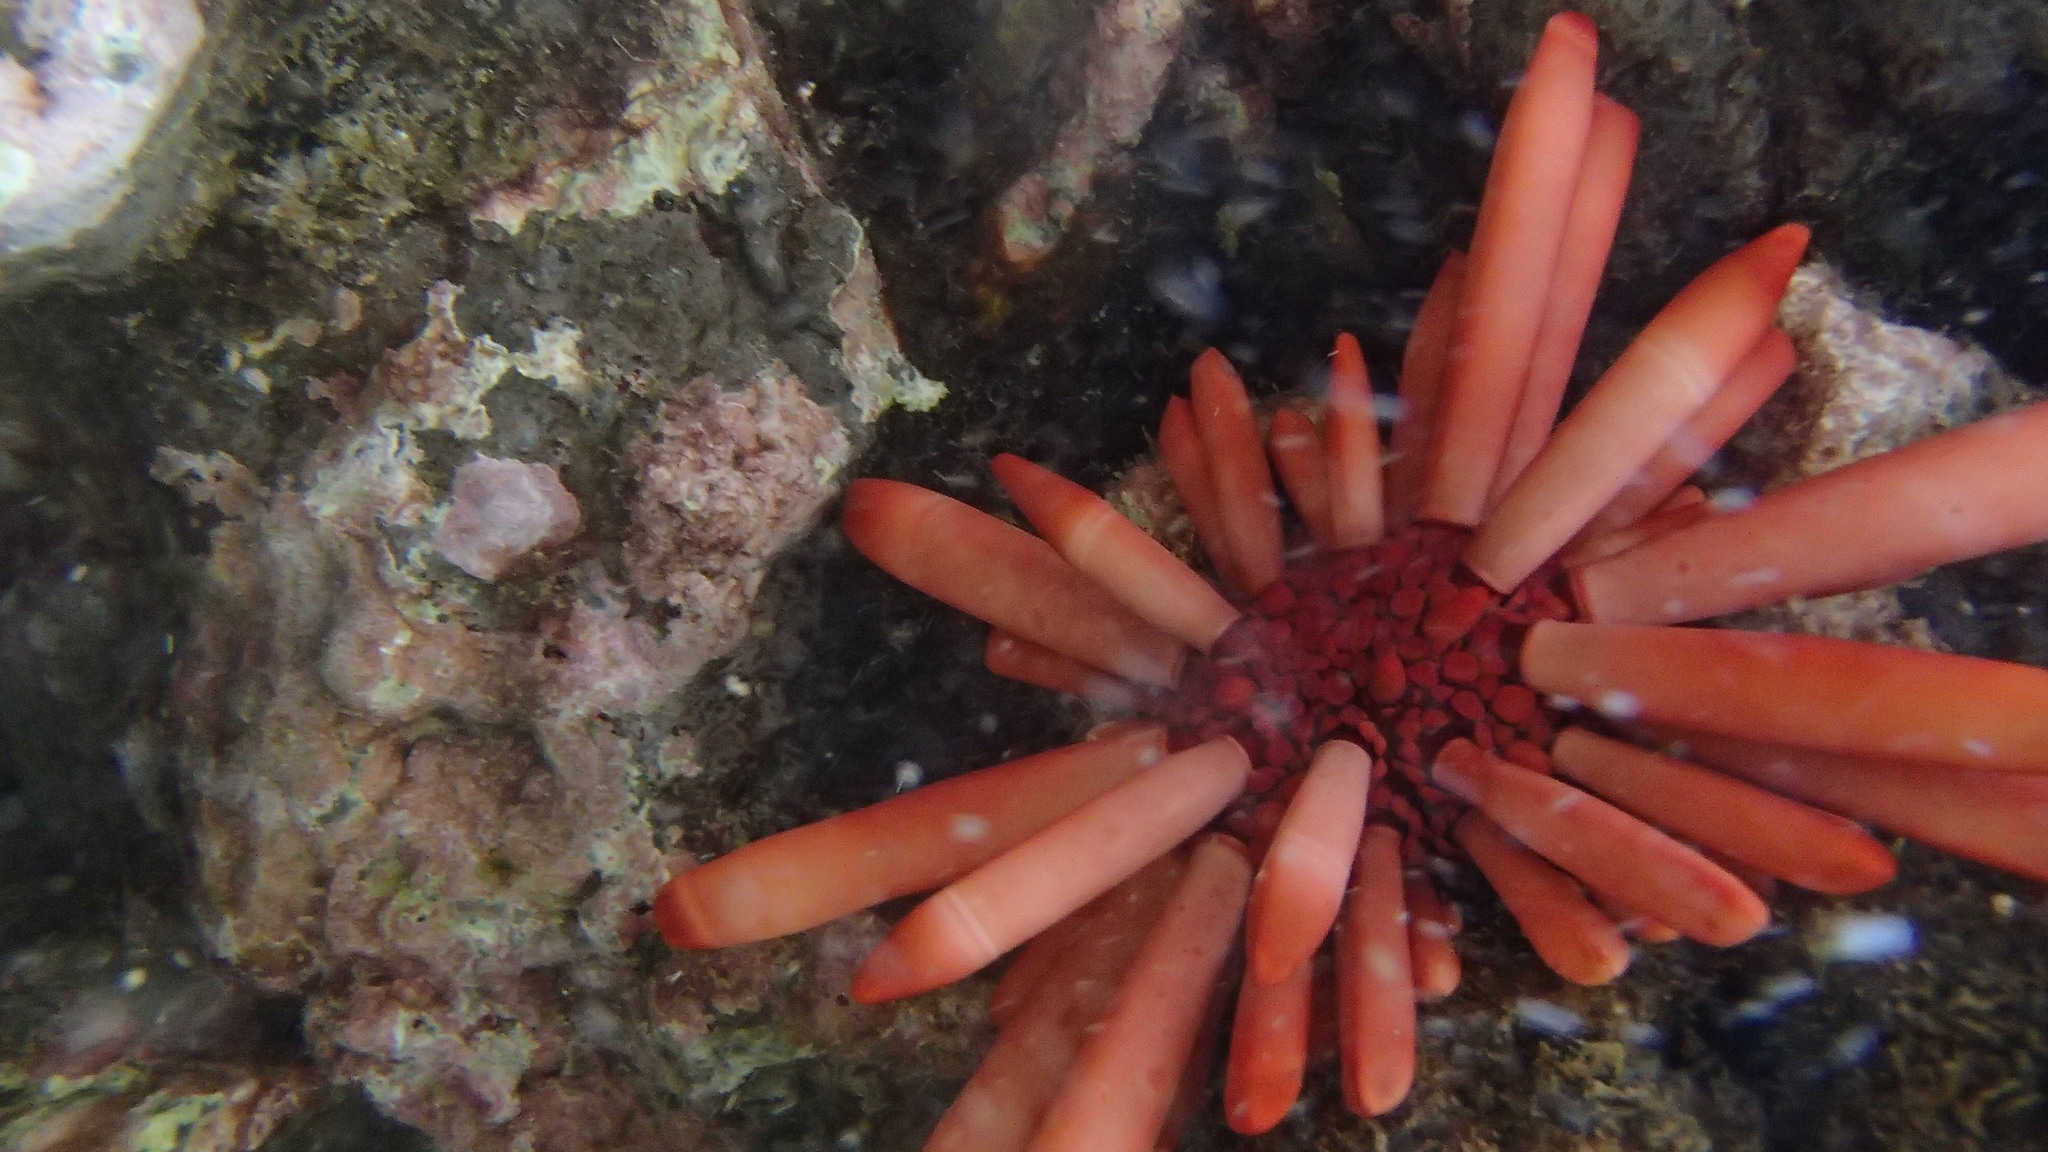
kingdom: Animalia
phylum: Echinodermata
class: Echinoidea
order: Camarodonta
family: Echinometridae
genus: Heterocentrotus
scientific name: Heterocentrotus mamillatus
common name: Slate pencil urchin
